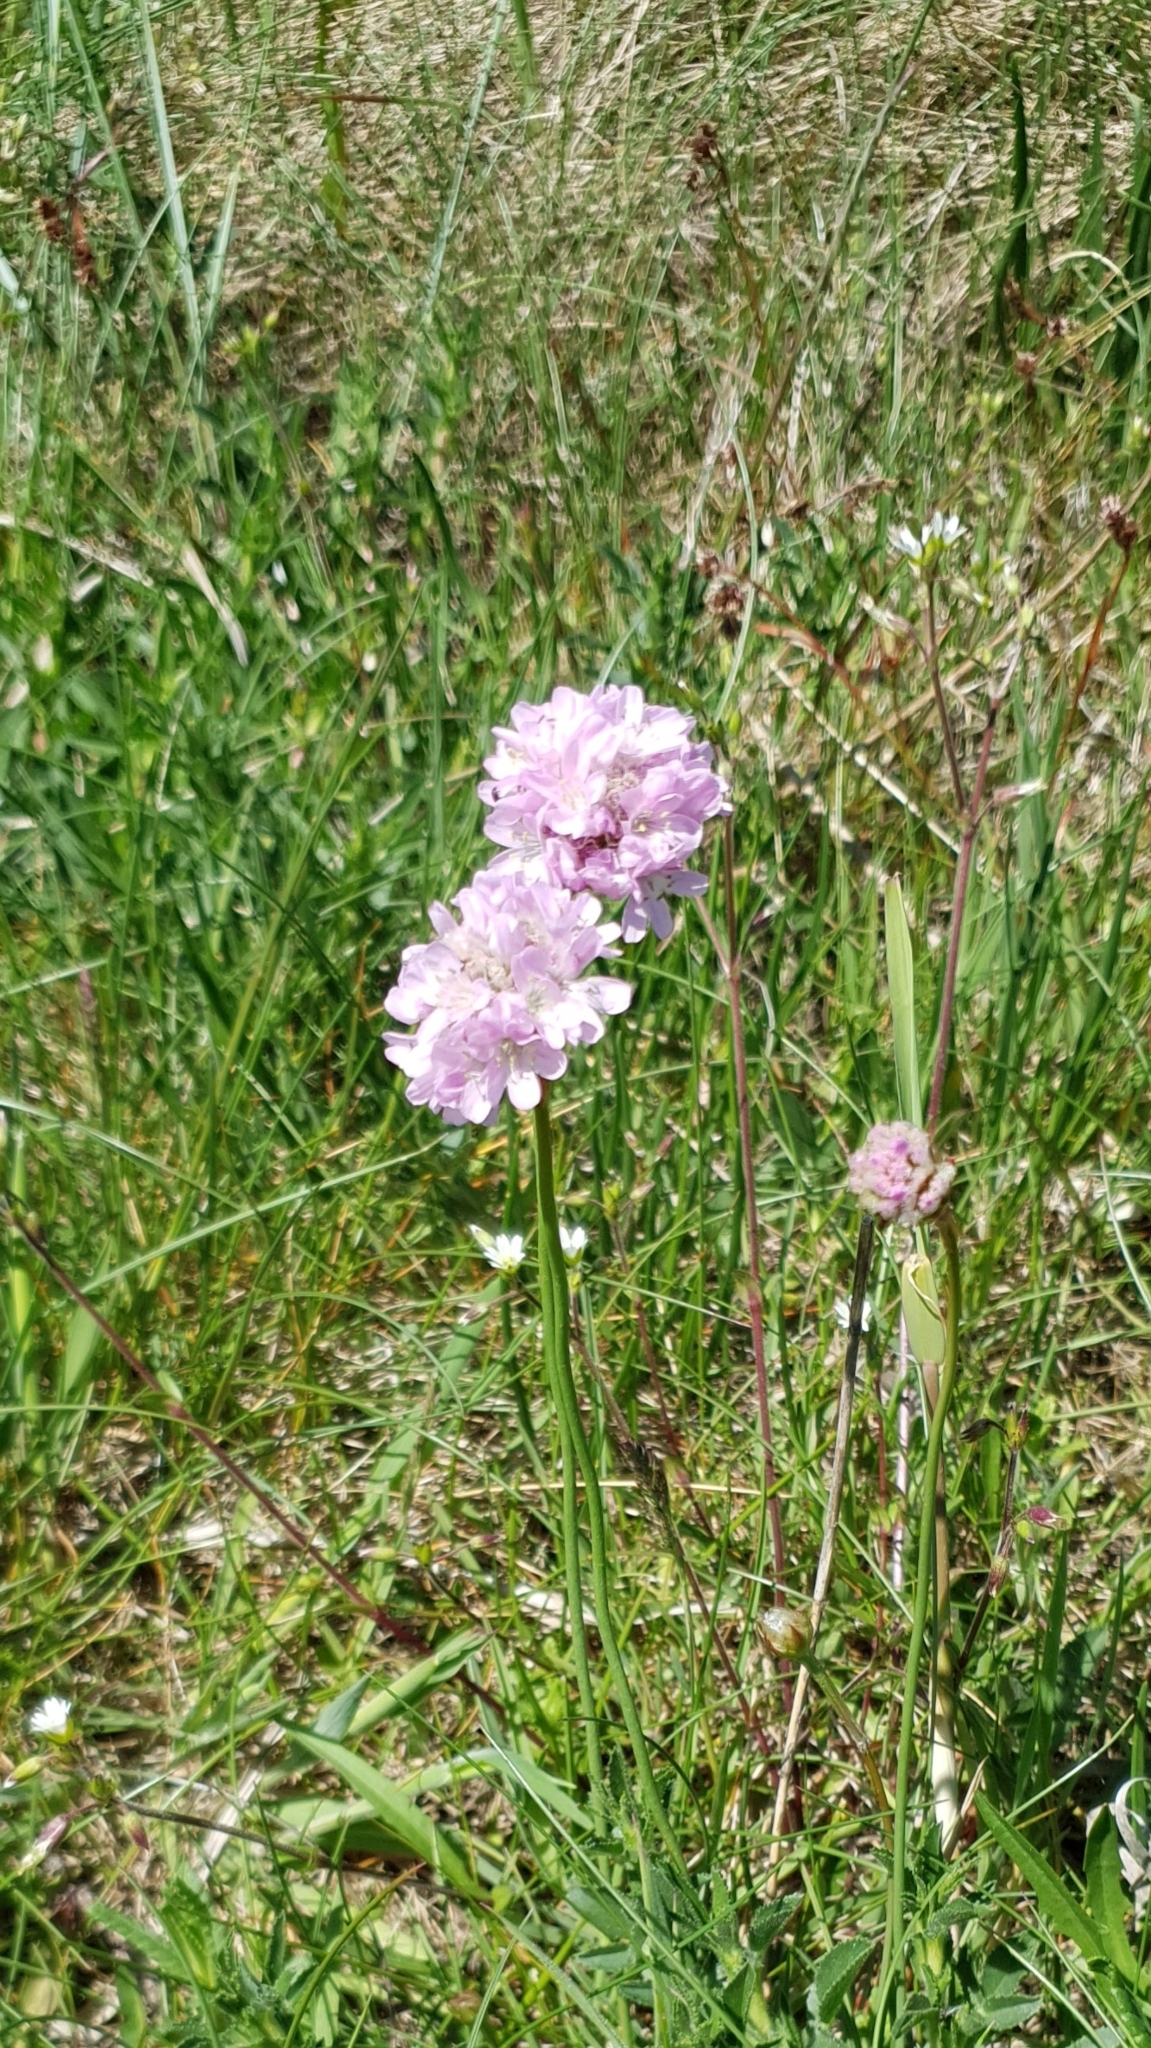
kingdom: Plantae
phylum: Tracheophyta
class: Magnoliopsida
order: Caryophyllales
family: Plumbaginaceae
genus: Armeria
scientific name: Armeria maritima
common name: Thrift
